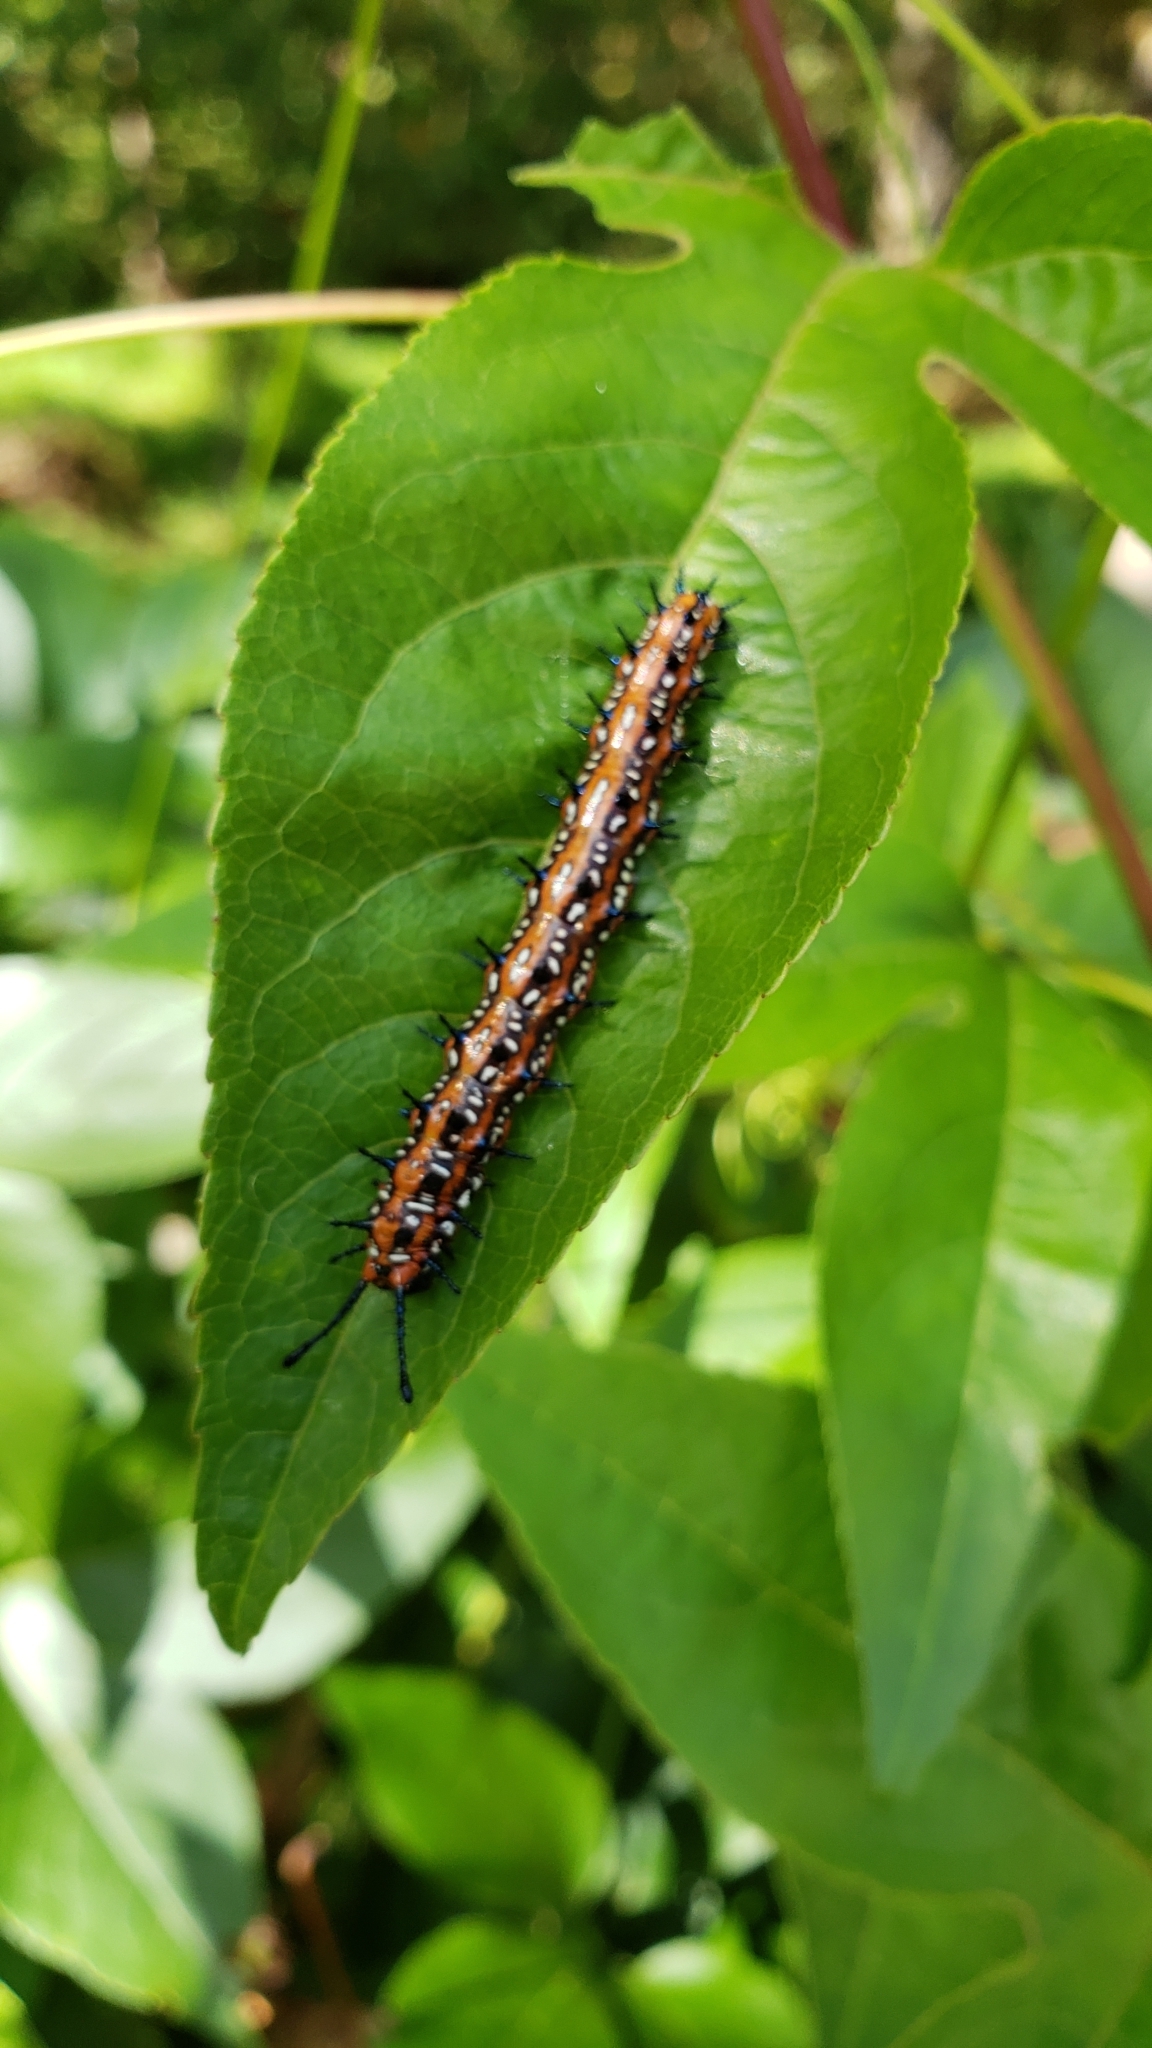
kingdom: Animalia
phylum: Arthropoda
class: Insecta
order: Lepidoptera
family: Nymphalidae
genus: Euptoieta
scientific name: Euptoieta claudia
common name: Variegated fritillary
